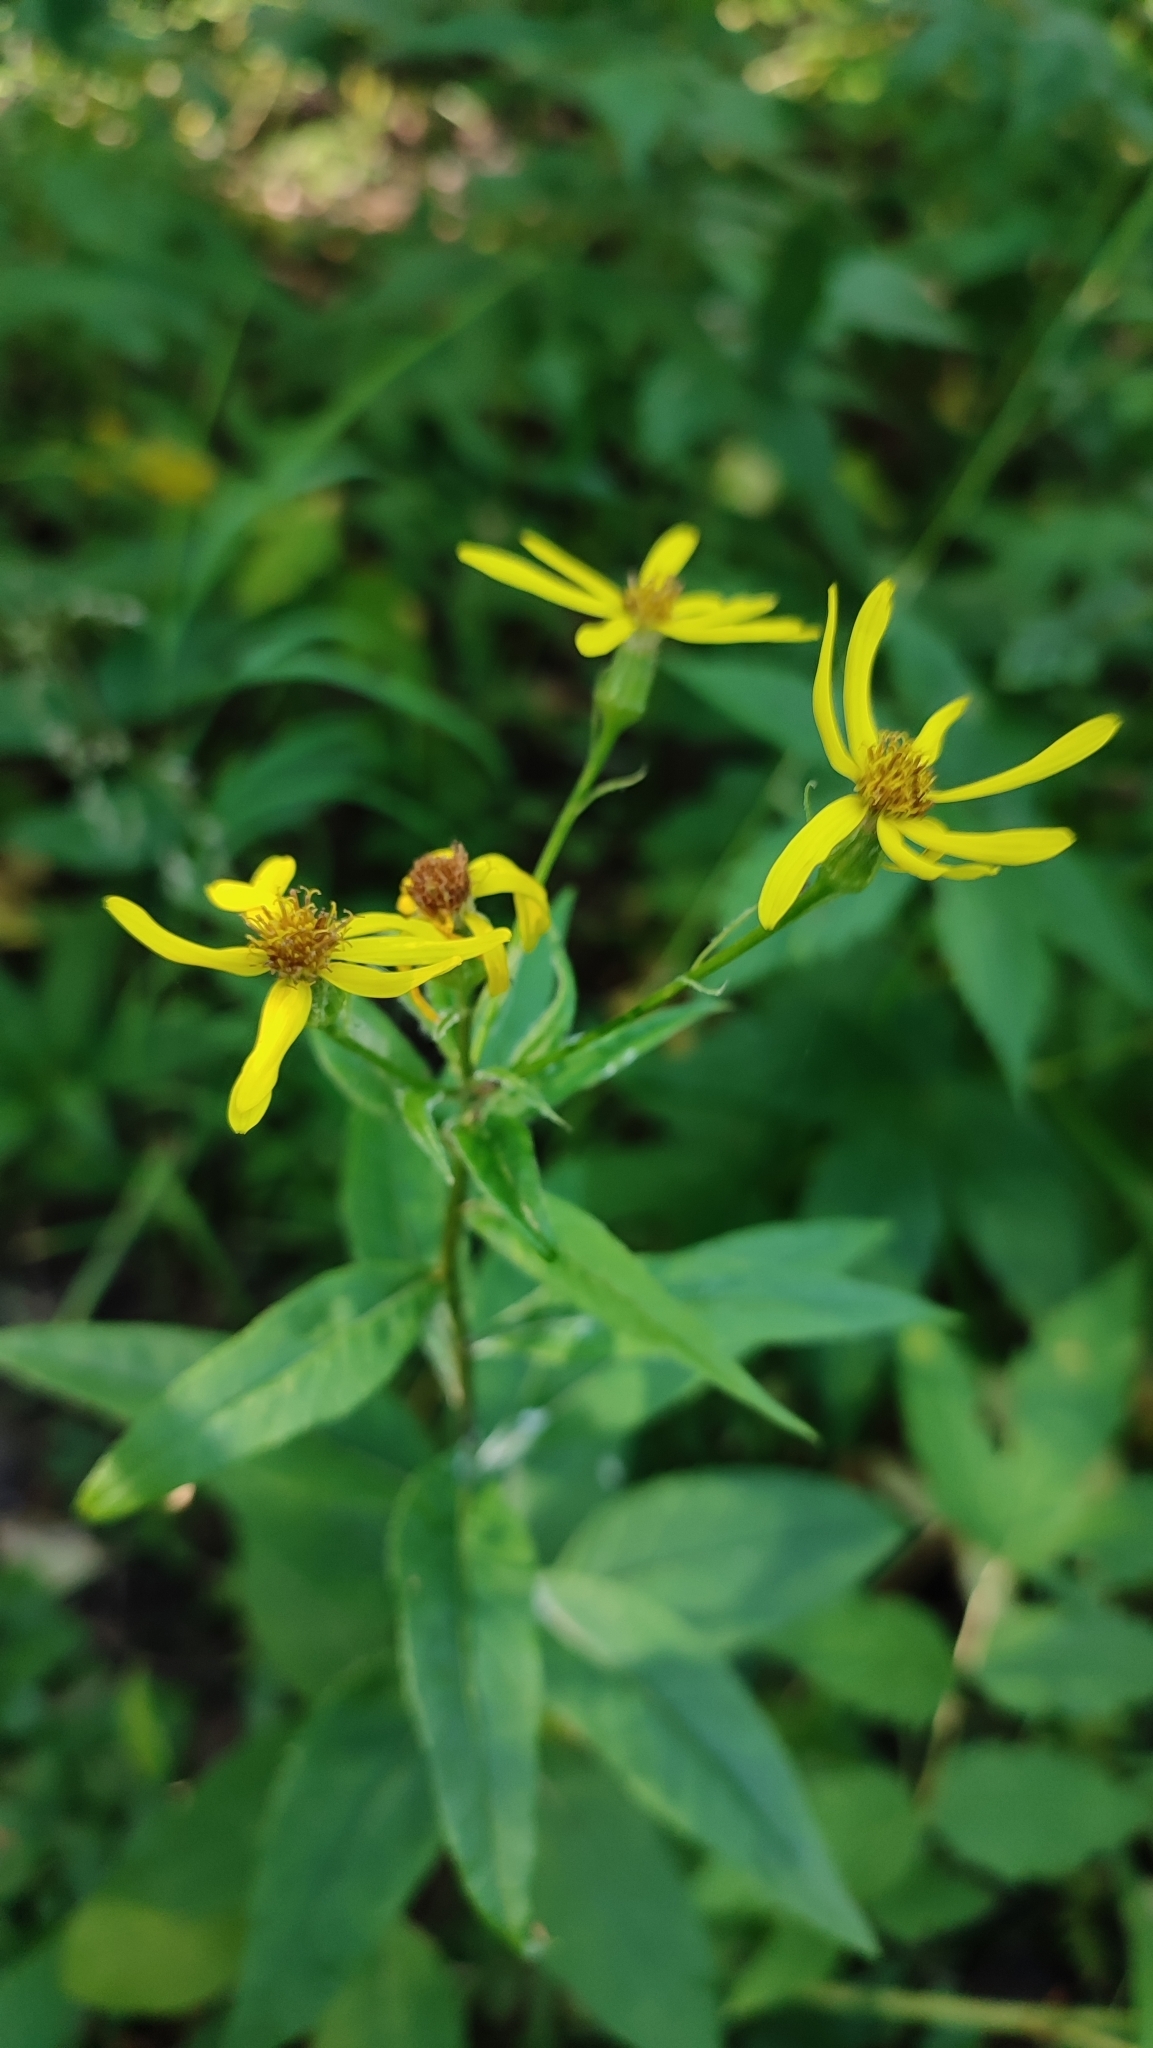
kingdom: Plantae
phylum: Tracheophyta
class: Magnoliopsida
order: Asterales
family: Asteraceae
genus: Senecio
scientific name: Senecio nemorensis
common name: Alpine ragwort
